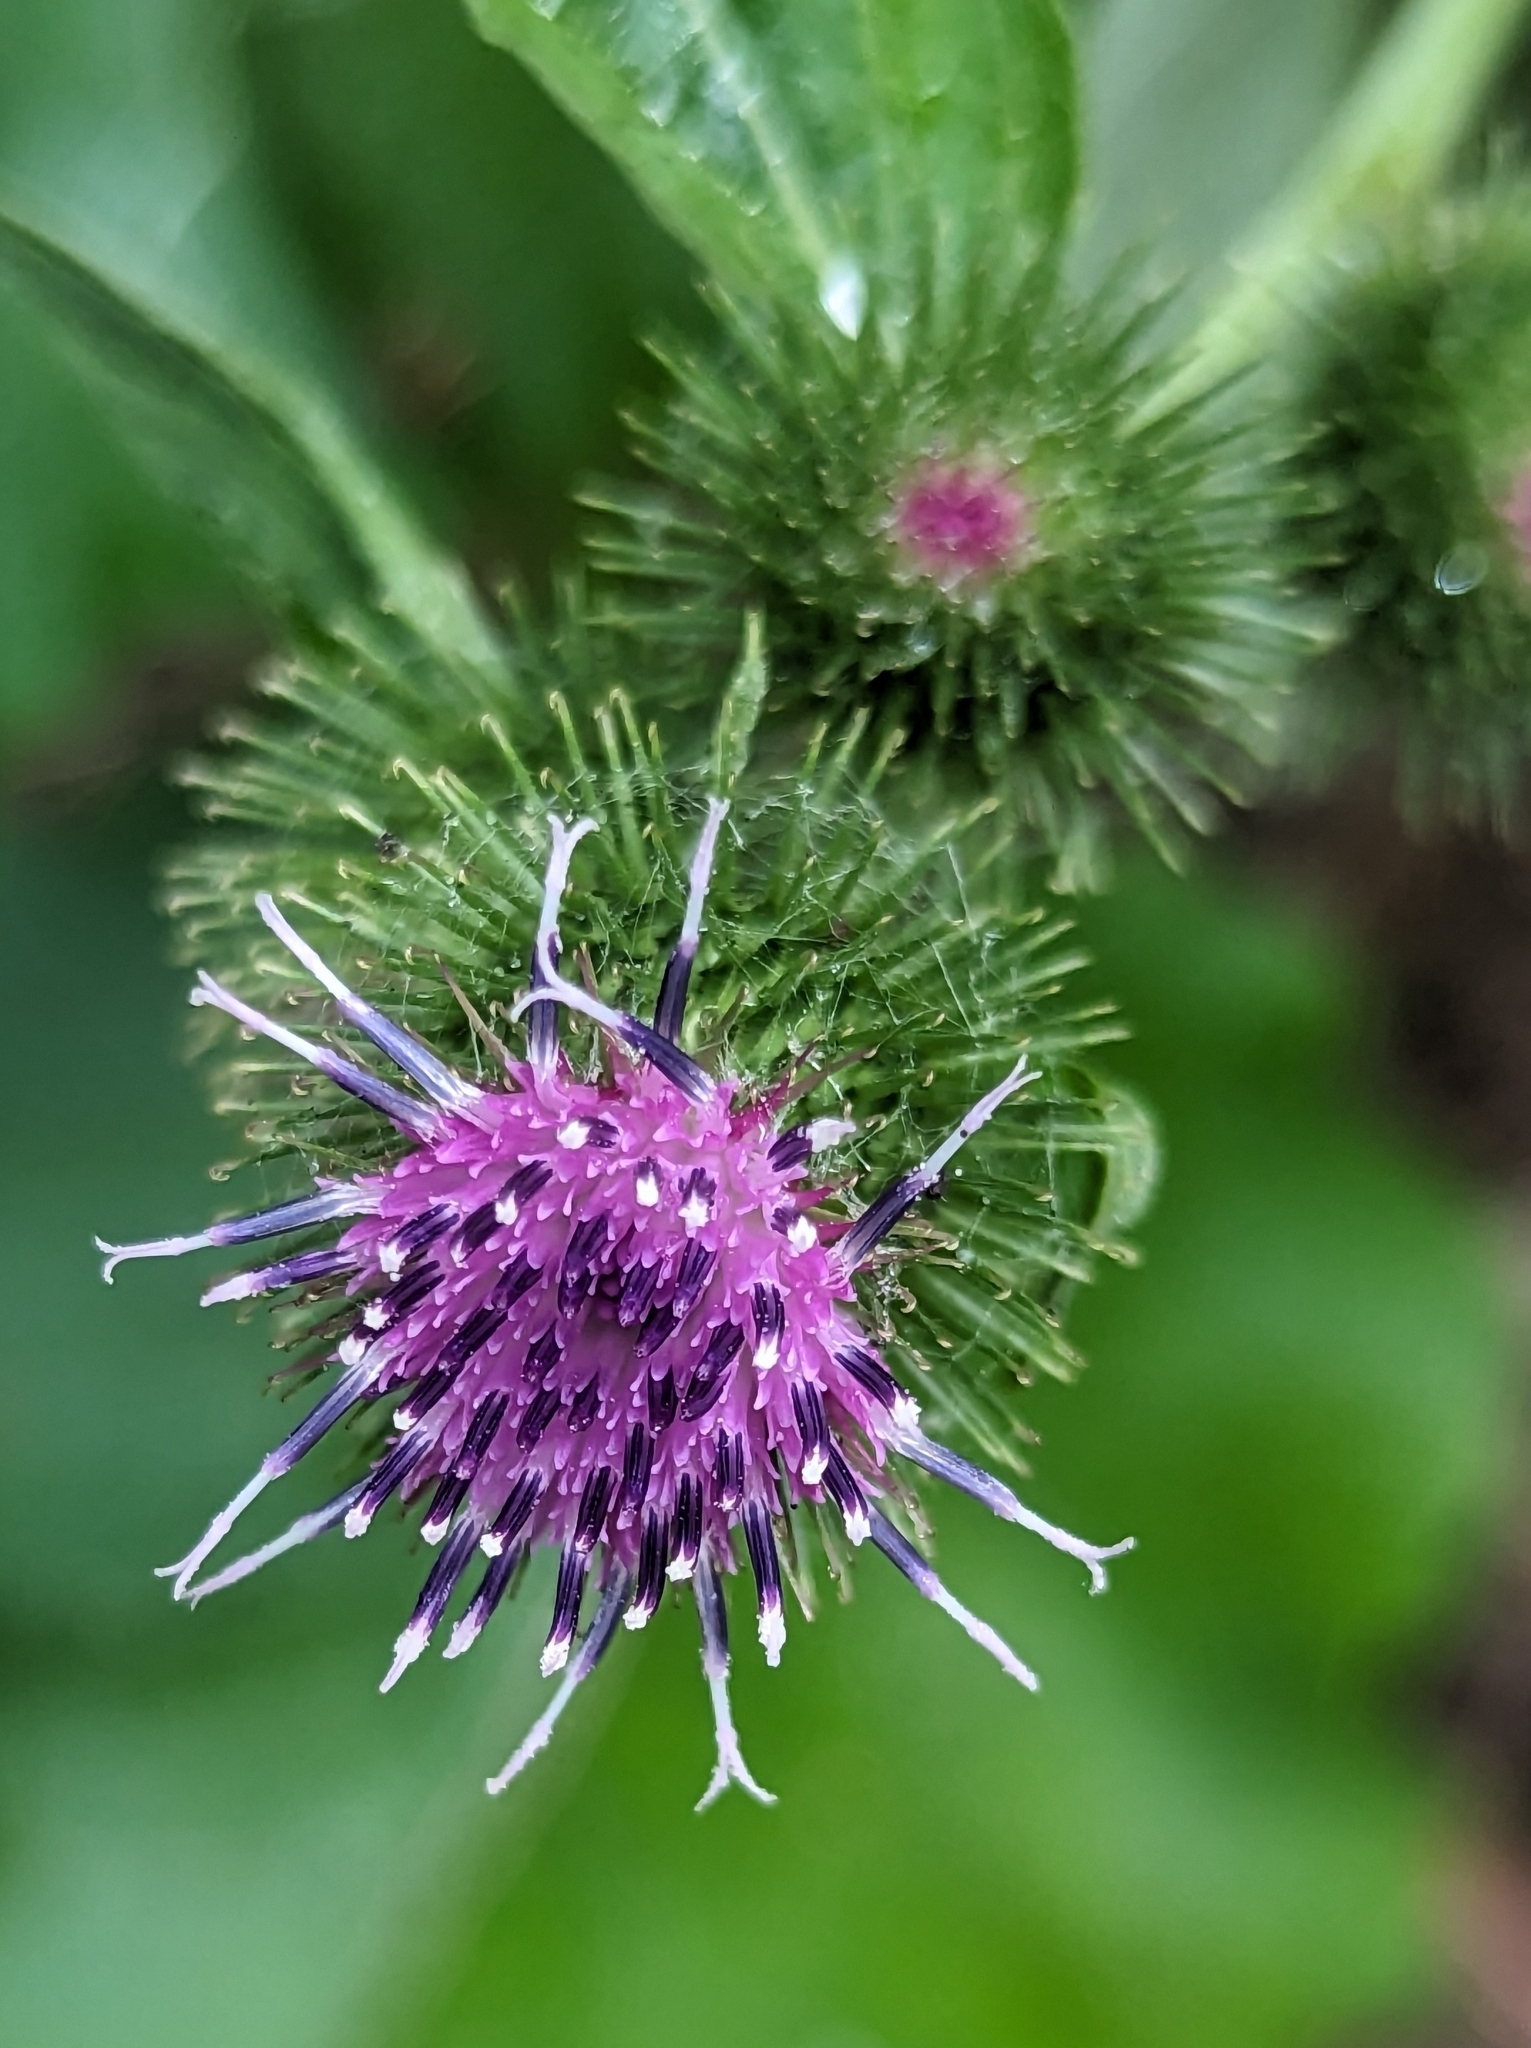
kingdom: Plantae
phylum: Tracheophyta
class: Magnoliopsida
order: Asterales
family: Asteraceae
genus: Arctium
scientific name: Arctium minus
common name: Lesser burdock
